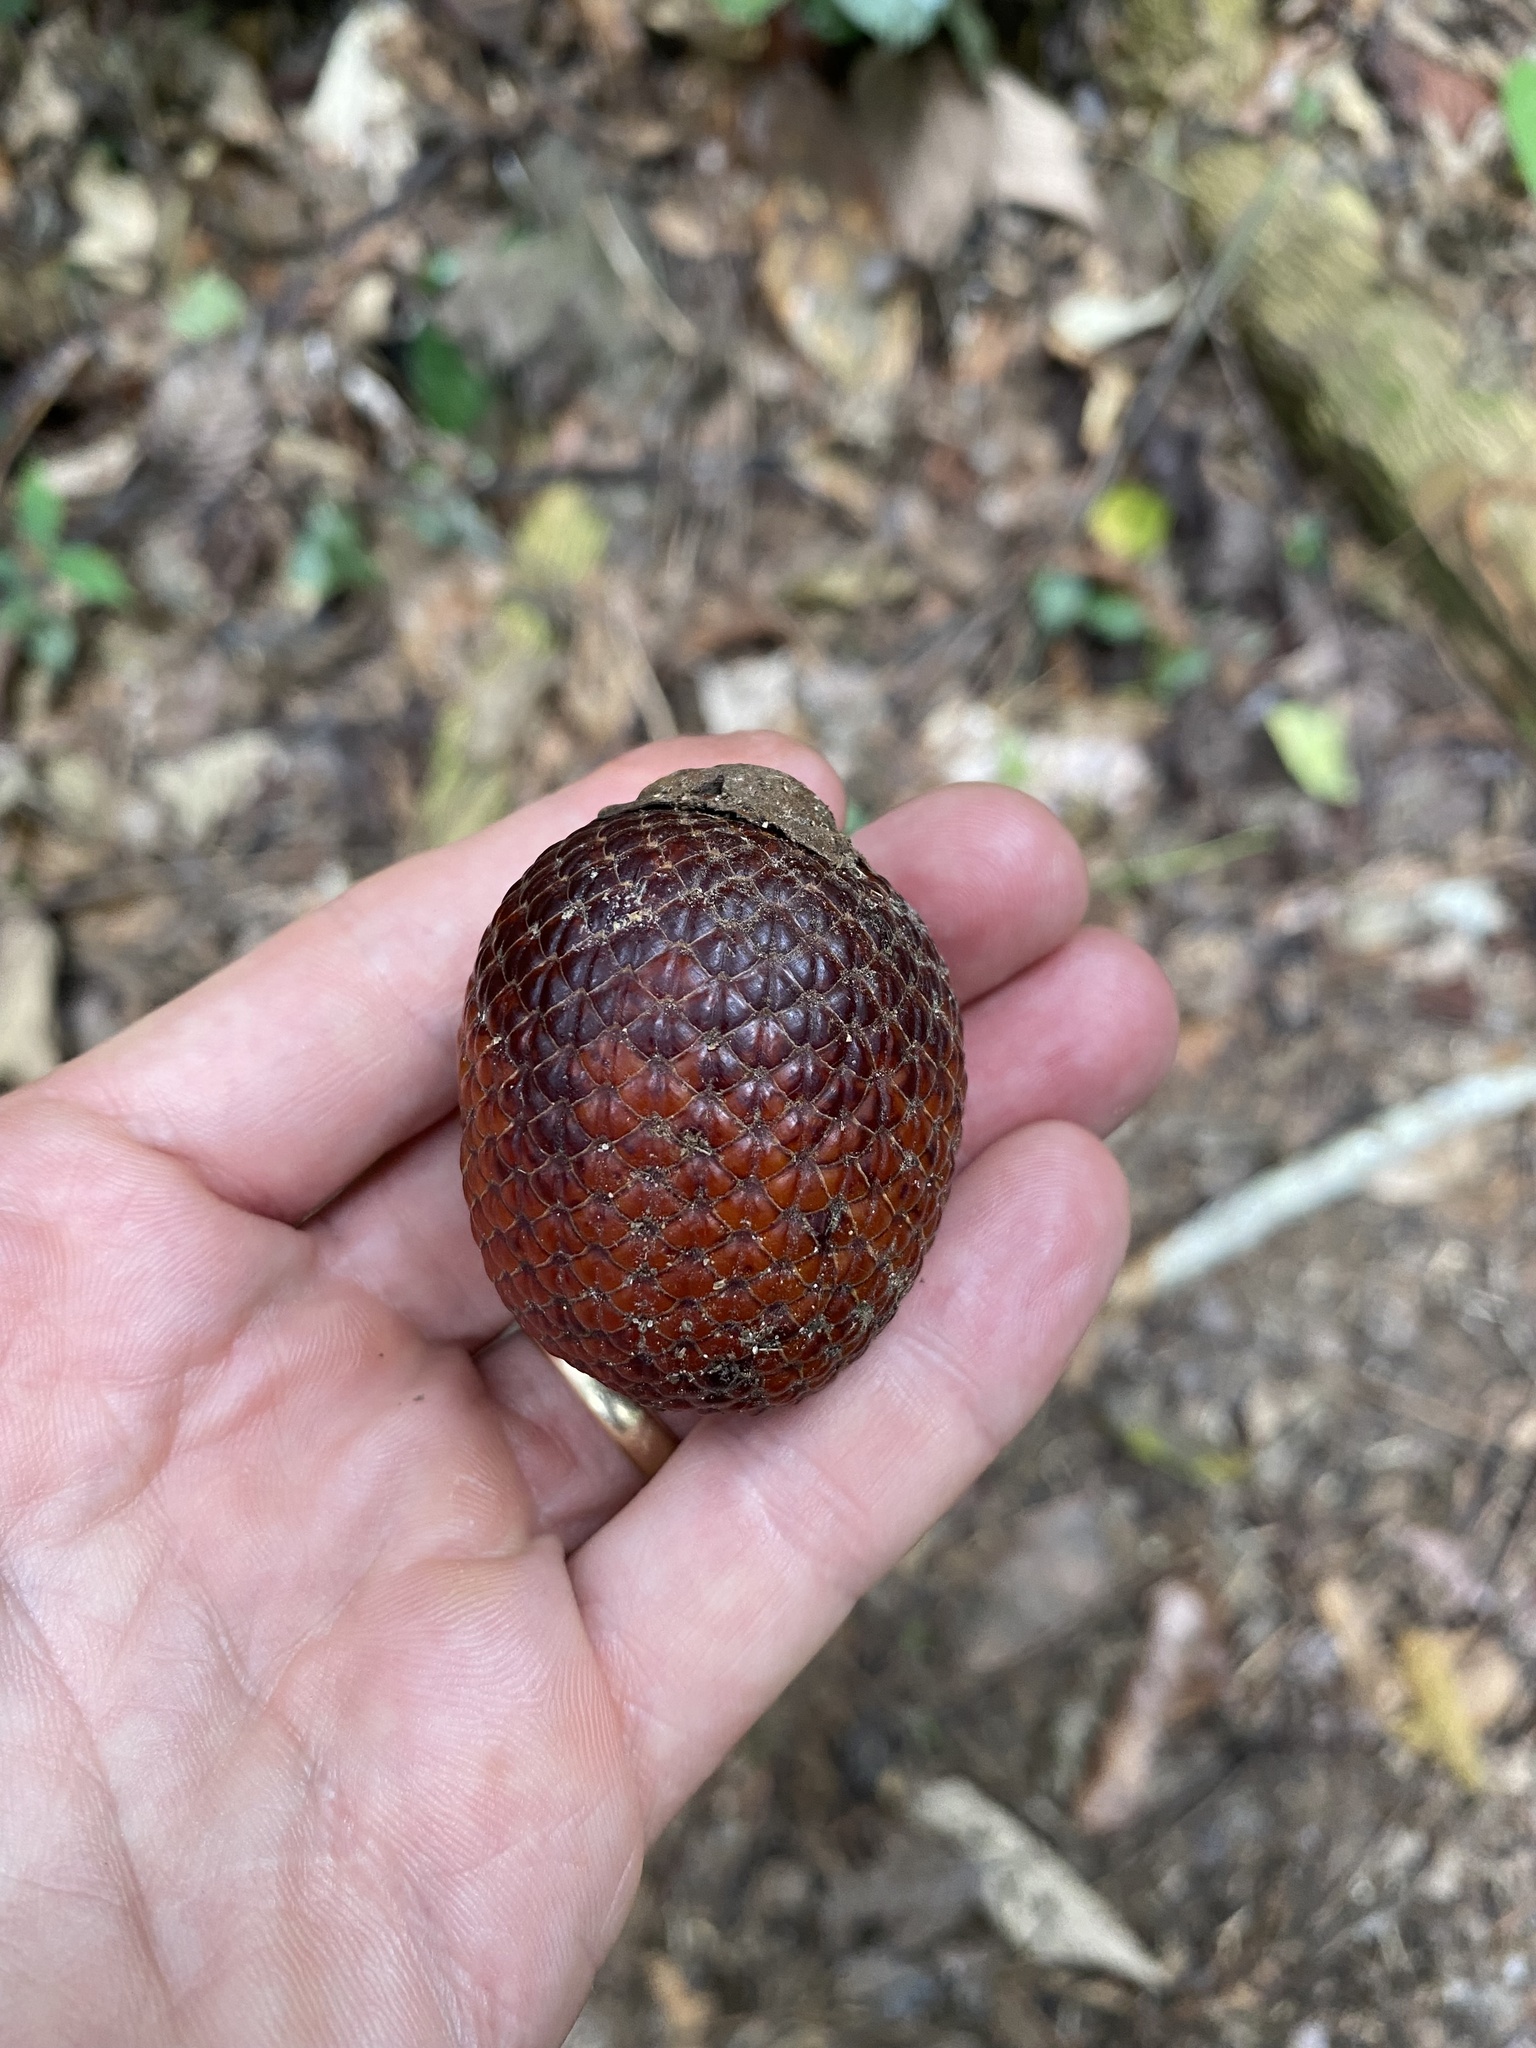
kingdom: Plantae
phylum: Tracheophyta
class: Liliopsida
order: Arecales
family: Arecaceae
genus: Mauritia
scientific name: Mauritia flexuosa
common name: Tree-of-life
